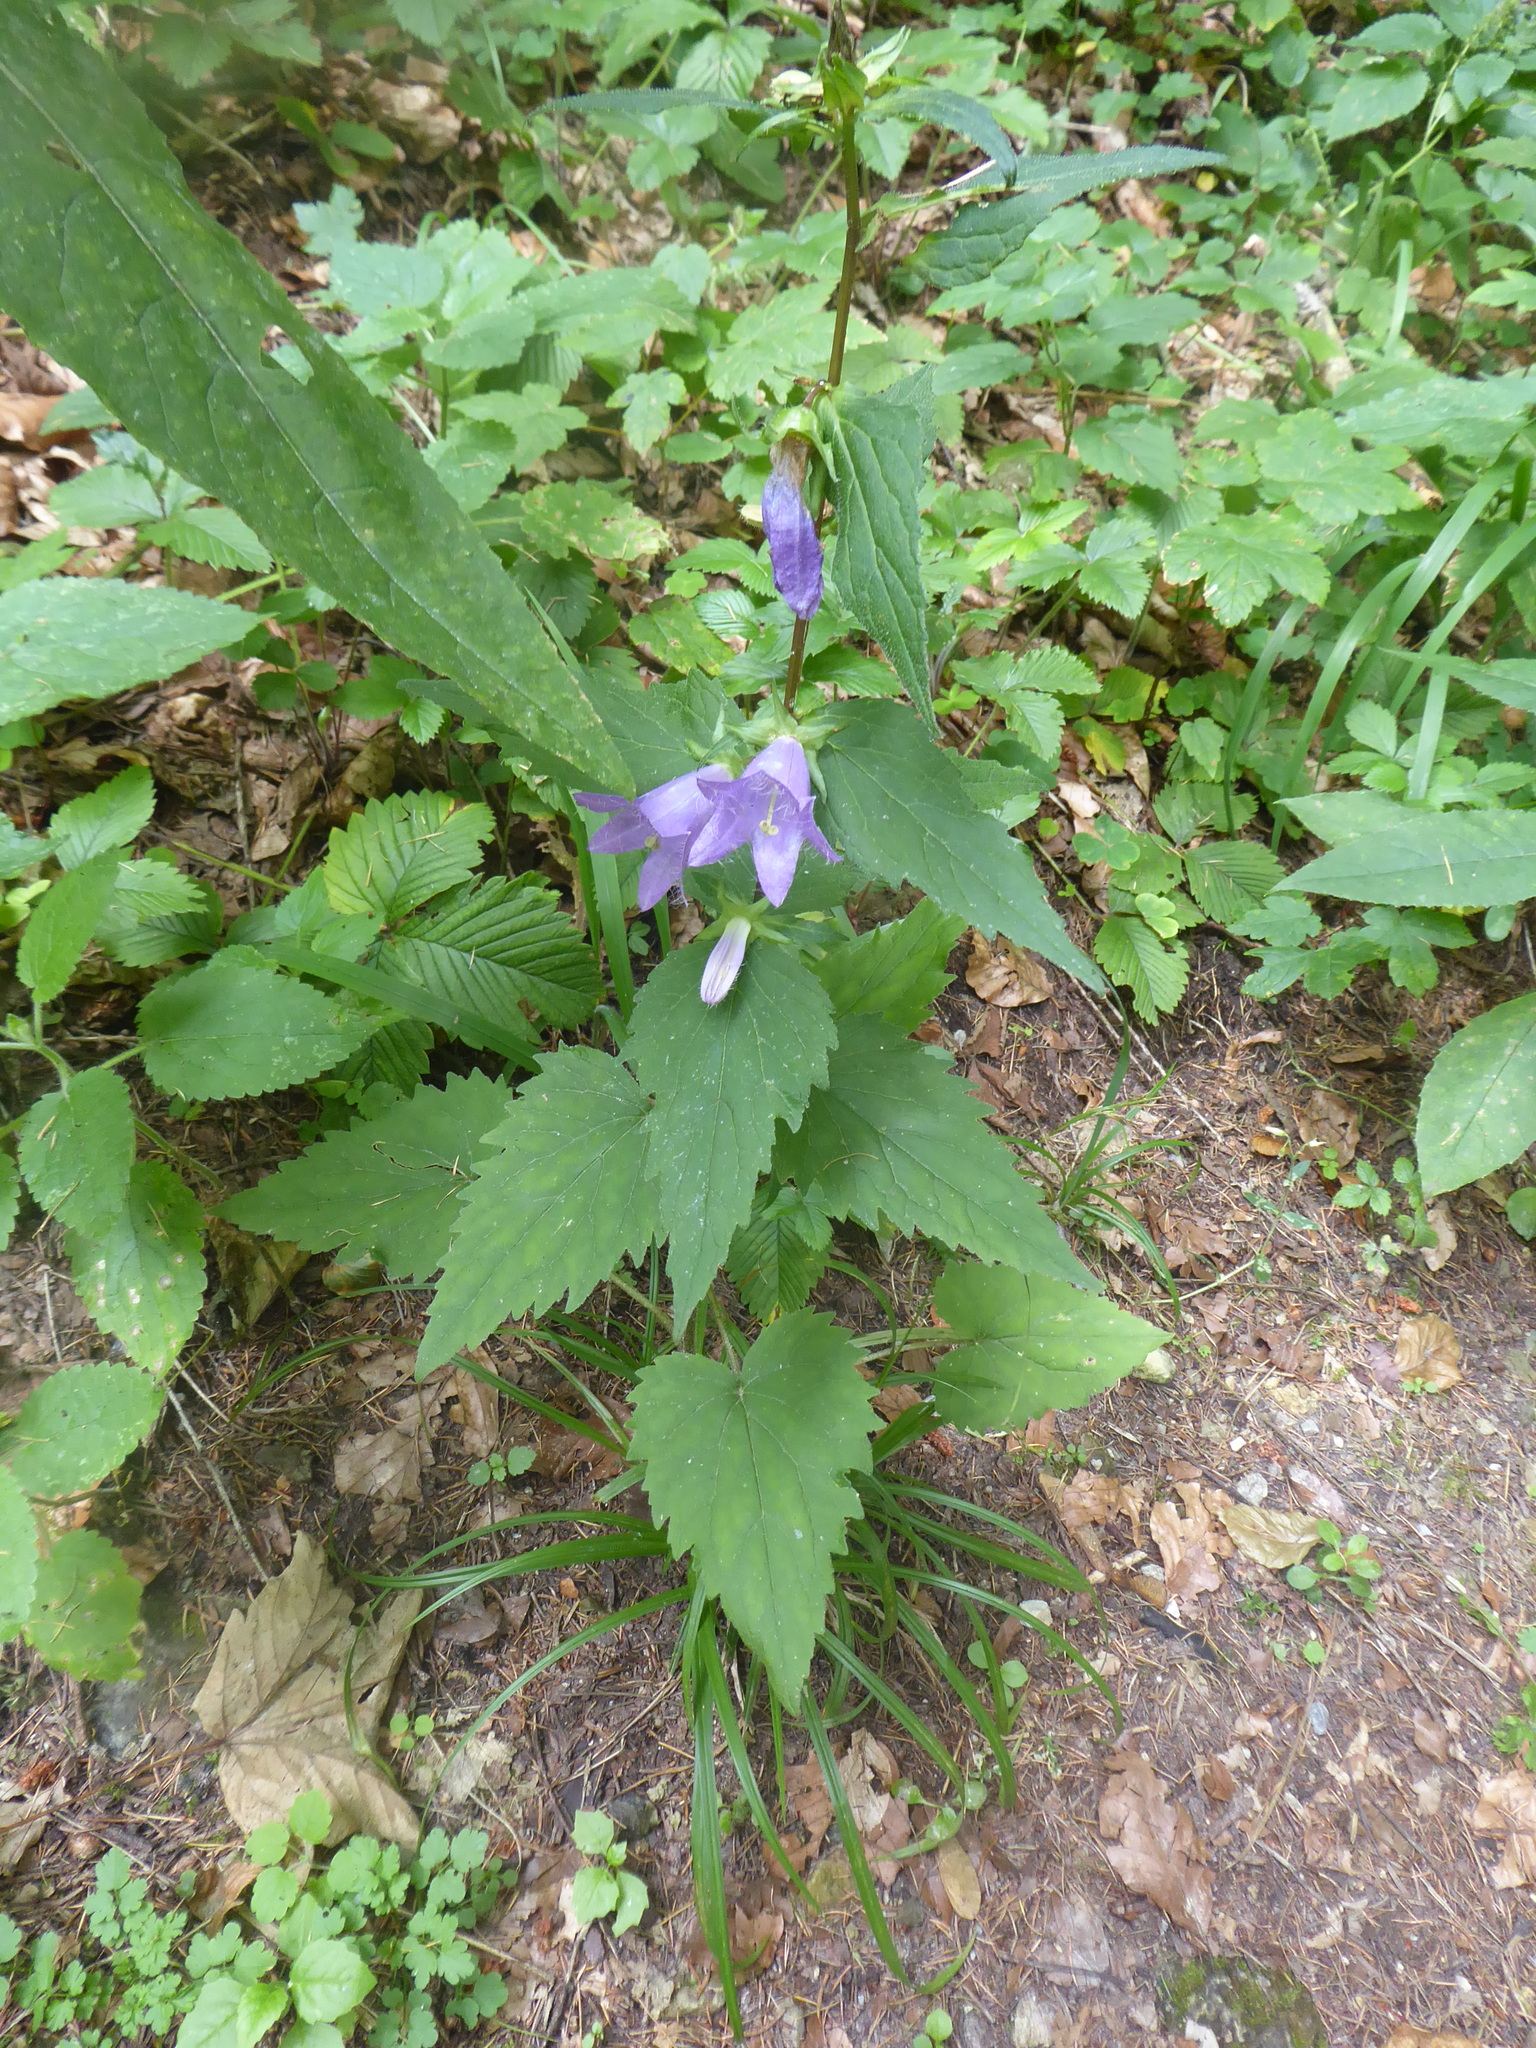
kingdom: Plantae
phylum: Tracheophyta
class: Magnoliopsida
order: Asterales
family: Campanulaceae
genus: Campanula
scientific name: Campanula trachelium
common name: Nettle-leaved bellflower
